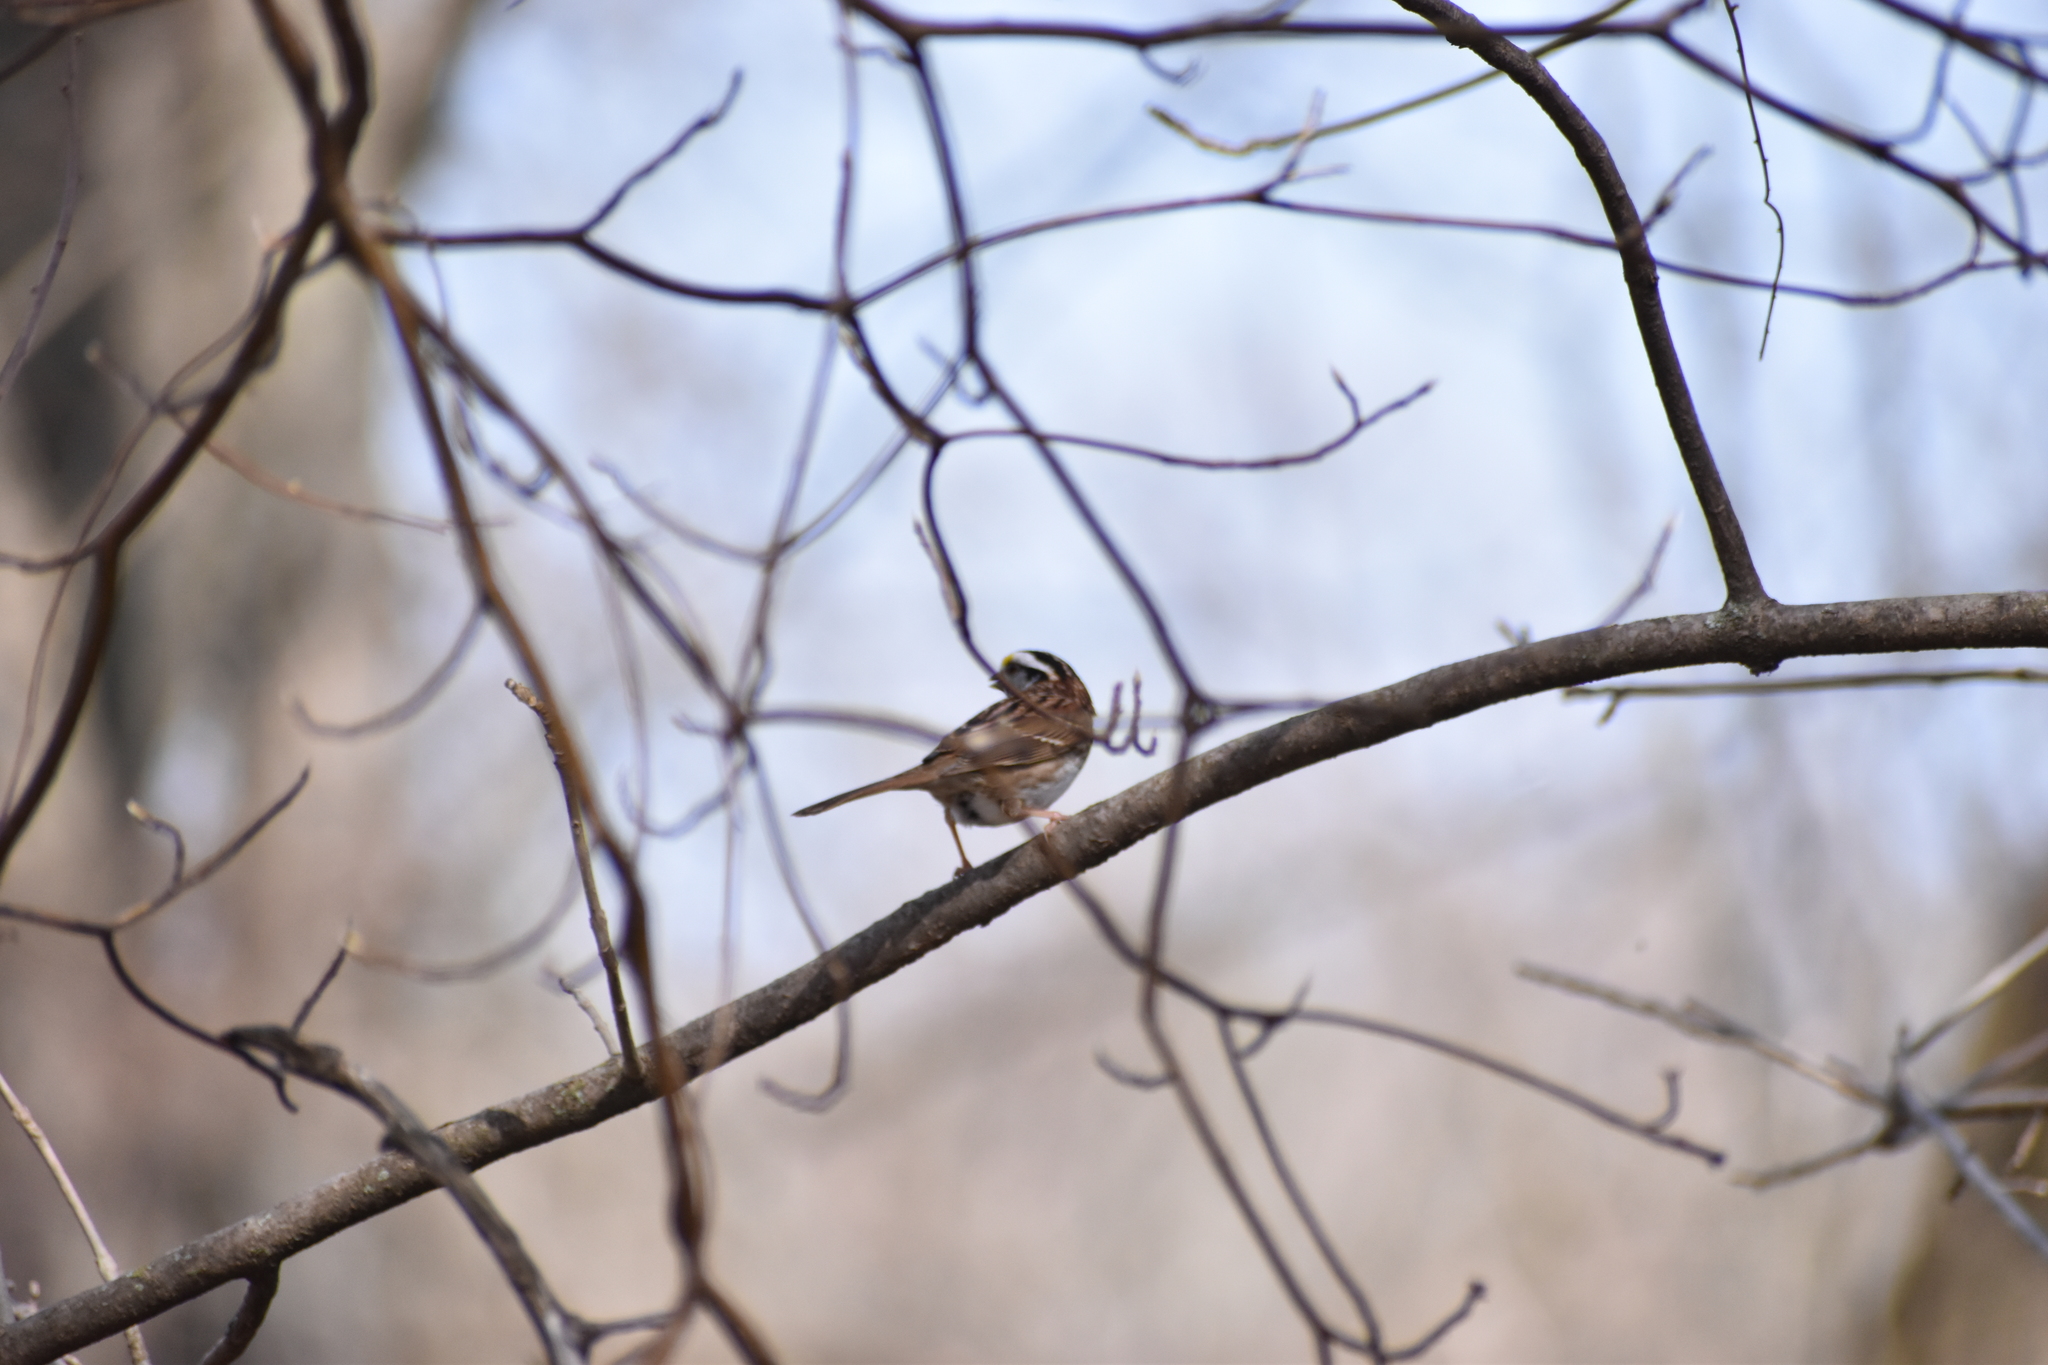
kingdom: Animalia
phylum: Chordata
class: Aves
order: Passeriformes
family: Passerellidae
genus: Zonotrichia
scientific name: Zonotrichia albicollis
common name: White-throated sparrow
